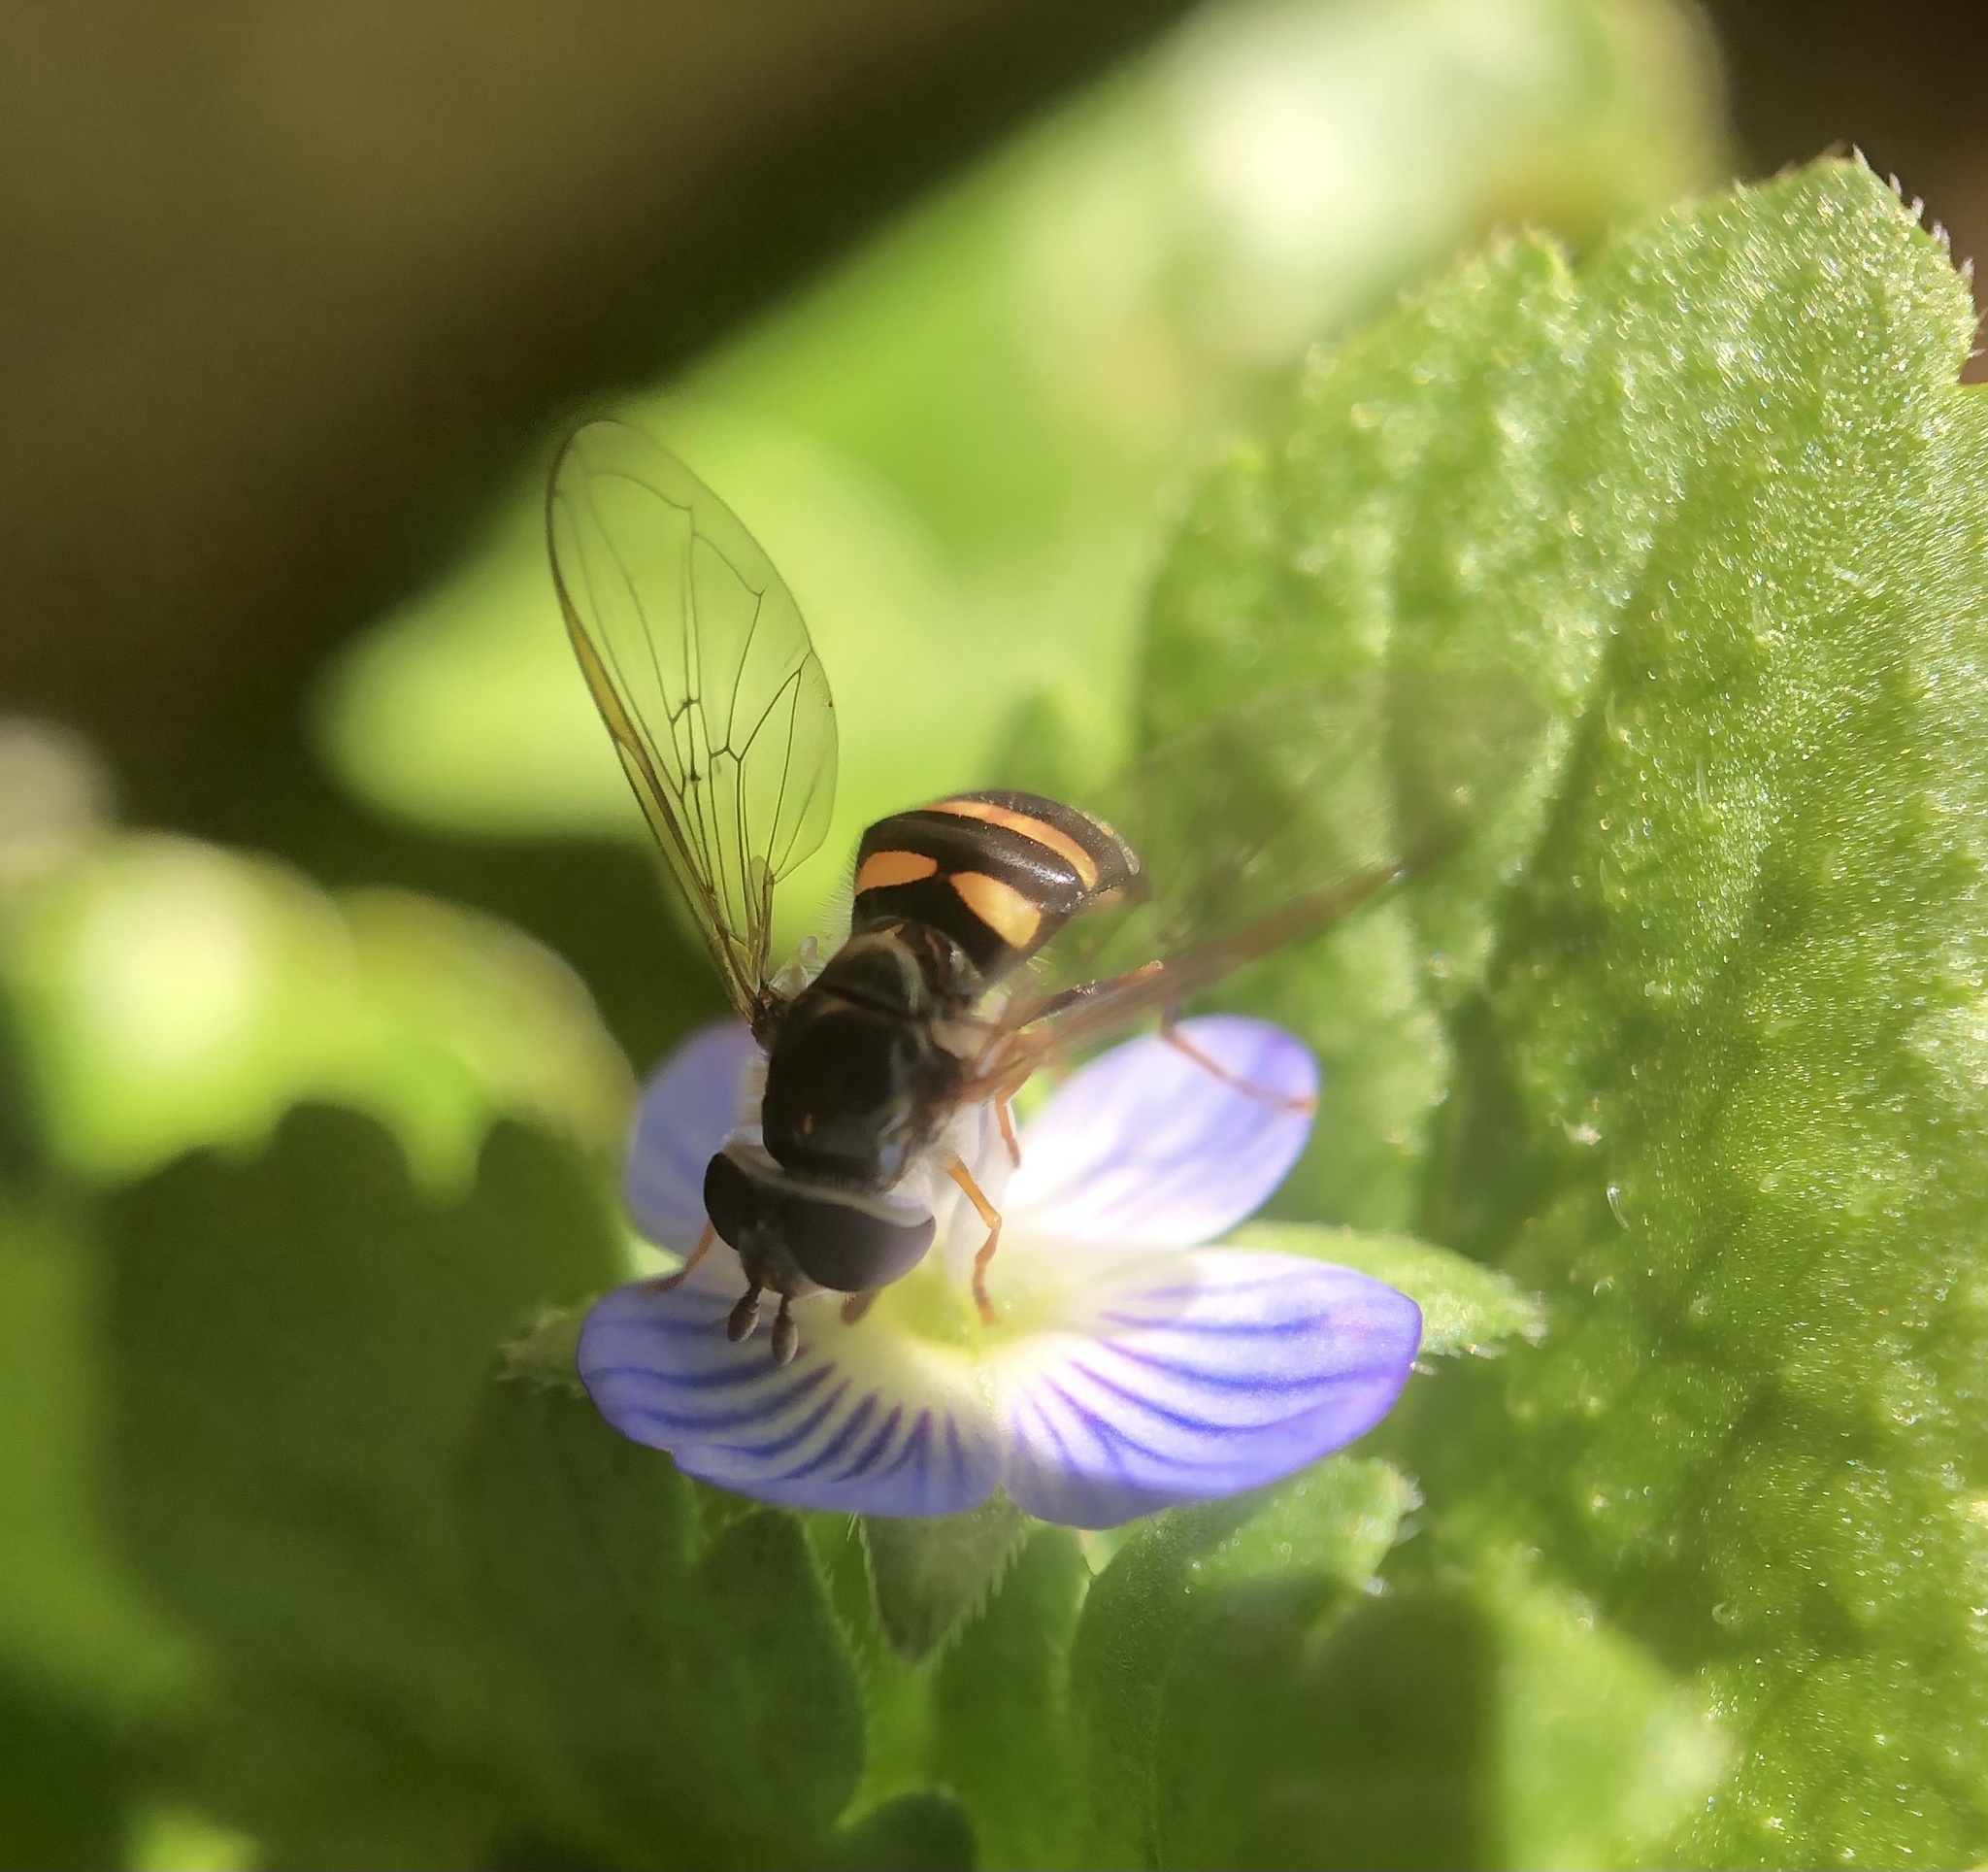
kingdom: Animalia
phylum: Arthropoda
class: Insecta
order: Diptera
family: Syrphidae
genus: Eupeodes
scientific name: Eupeodes
